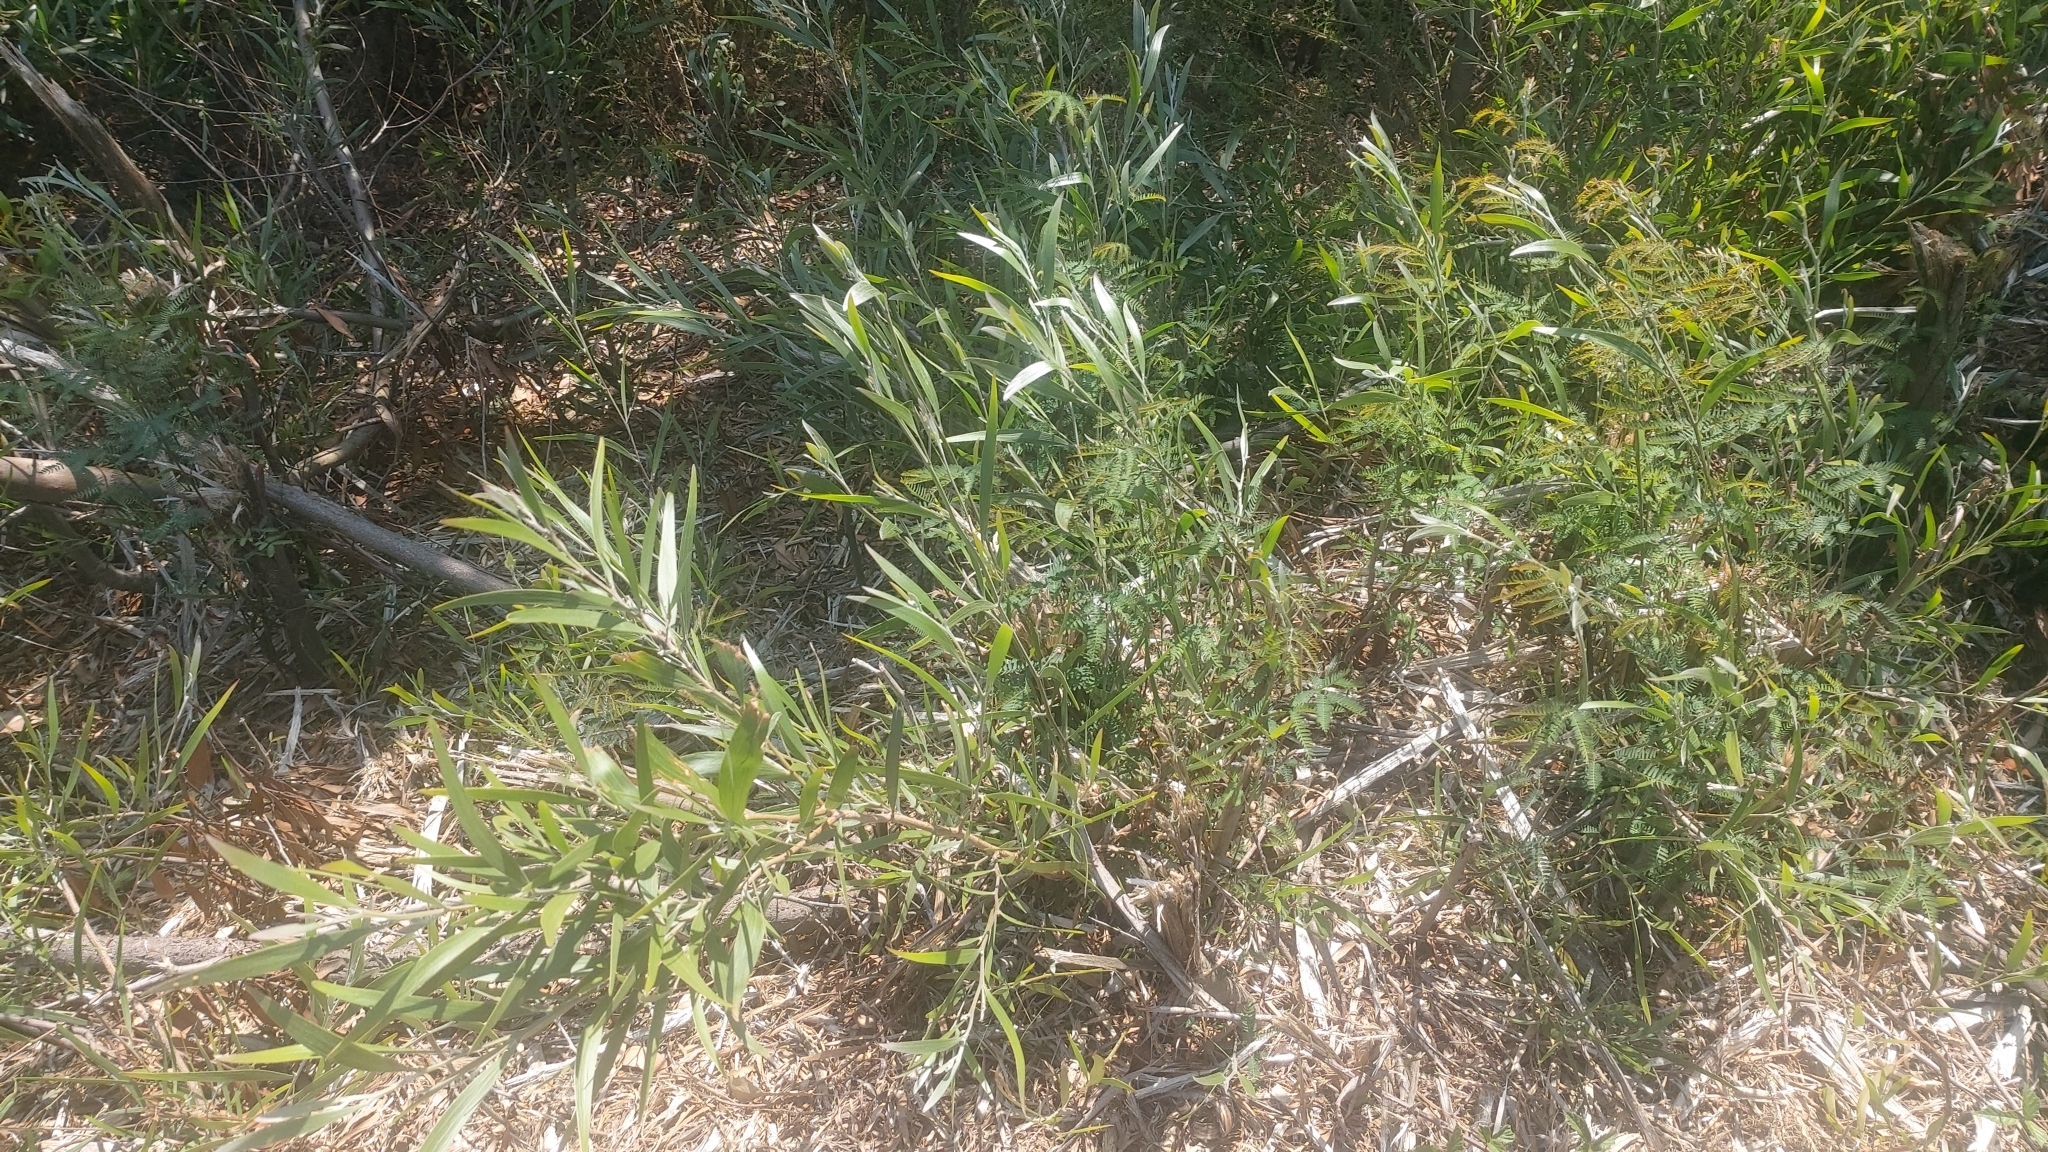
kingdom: Plantae
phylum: Tracheophyta
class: Magnoliopsida
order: Fabales
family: Fabaceae
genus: Acacia
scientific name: Acacia melanoxylon
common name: Blackwood
